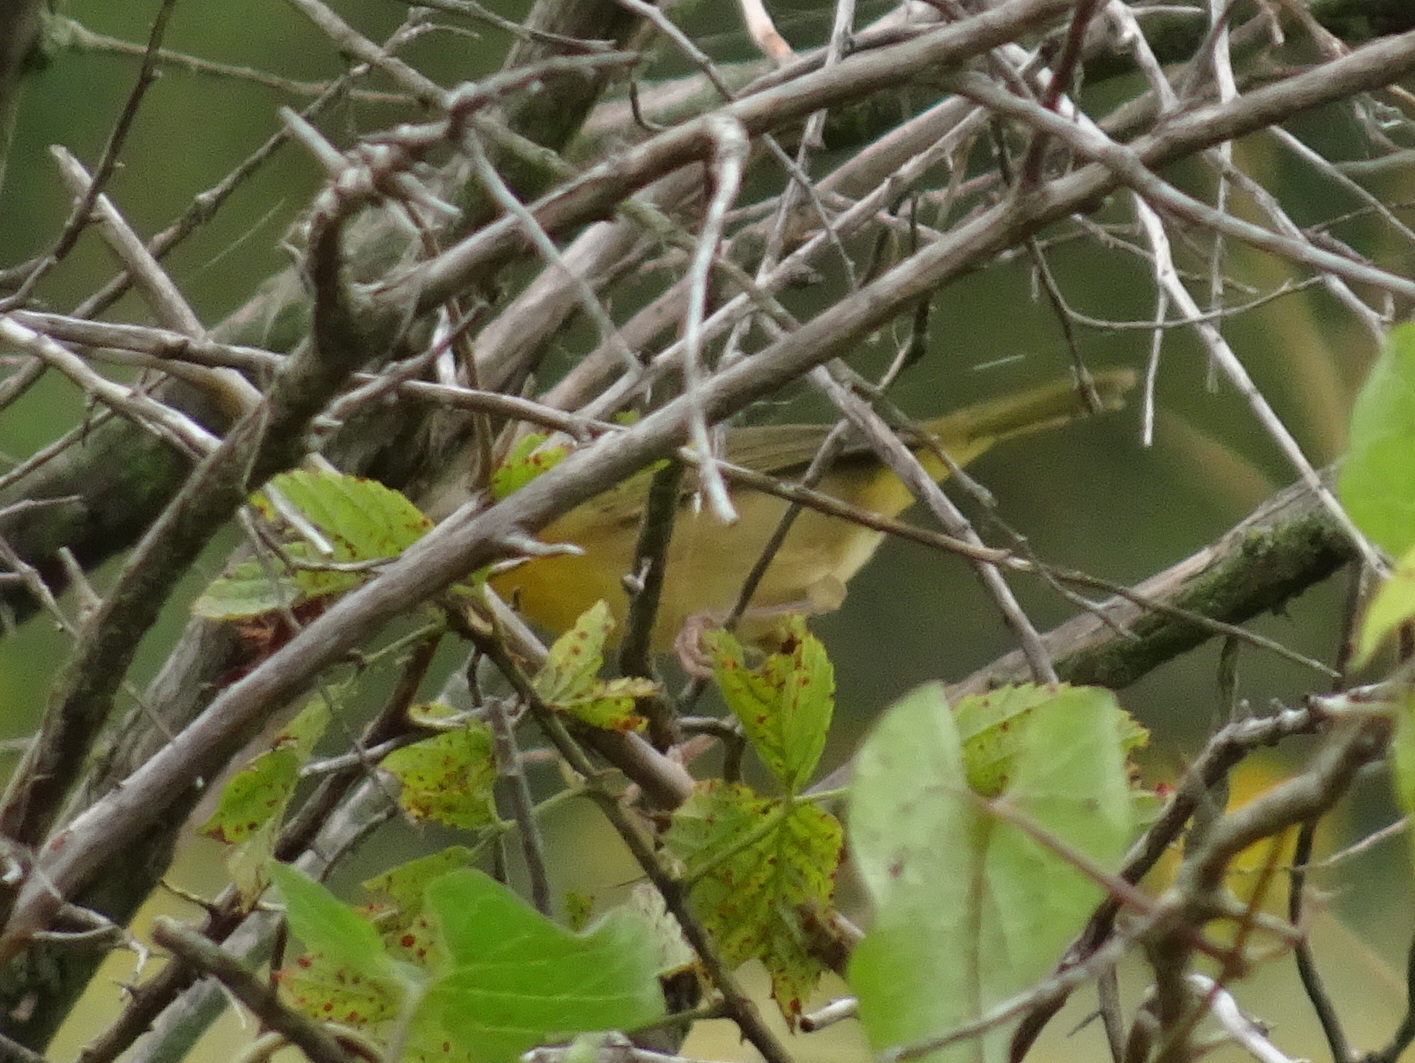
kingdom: Animalia
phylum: Chordata
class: Aves
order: Passeriformes
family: Parulidae
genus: Geothlypis
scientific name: Geothlypis trichas
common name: Common yellowthroat
